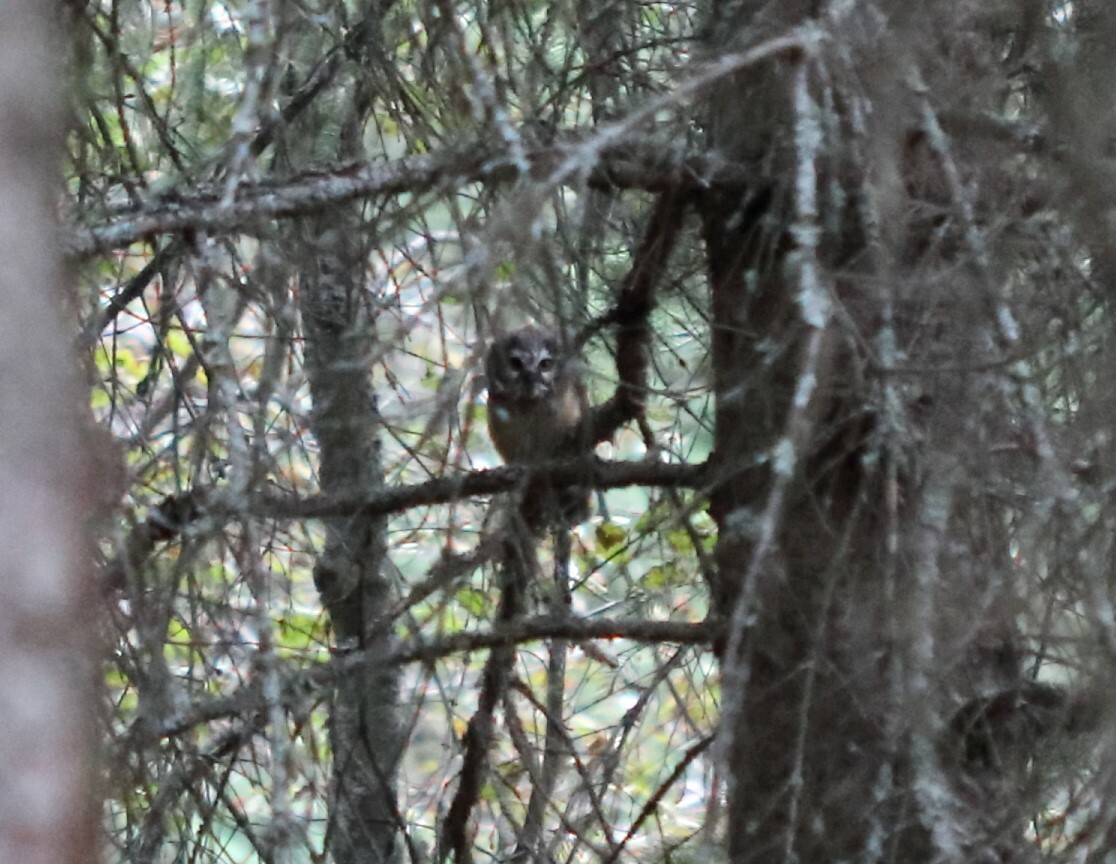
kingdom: Animalia
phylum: Chordata
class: Aves
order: Strigiformes
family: Strigidae
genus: Aegolius
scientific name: Aegolius acadicus
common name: Northern saw-whet owl
